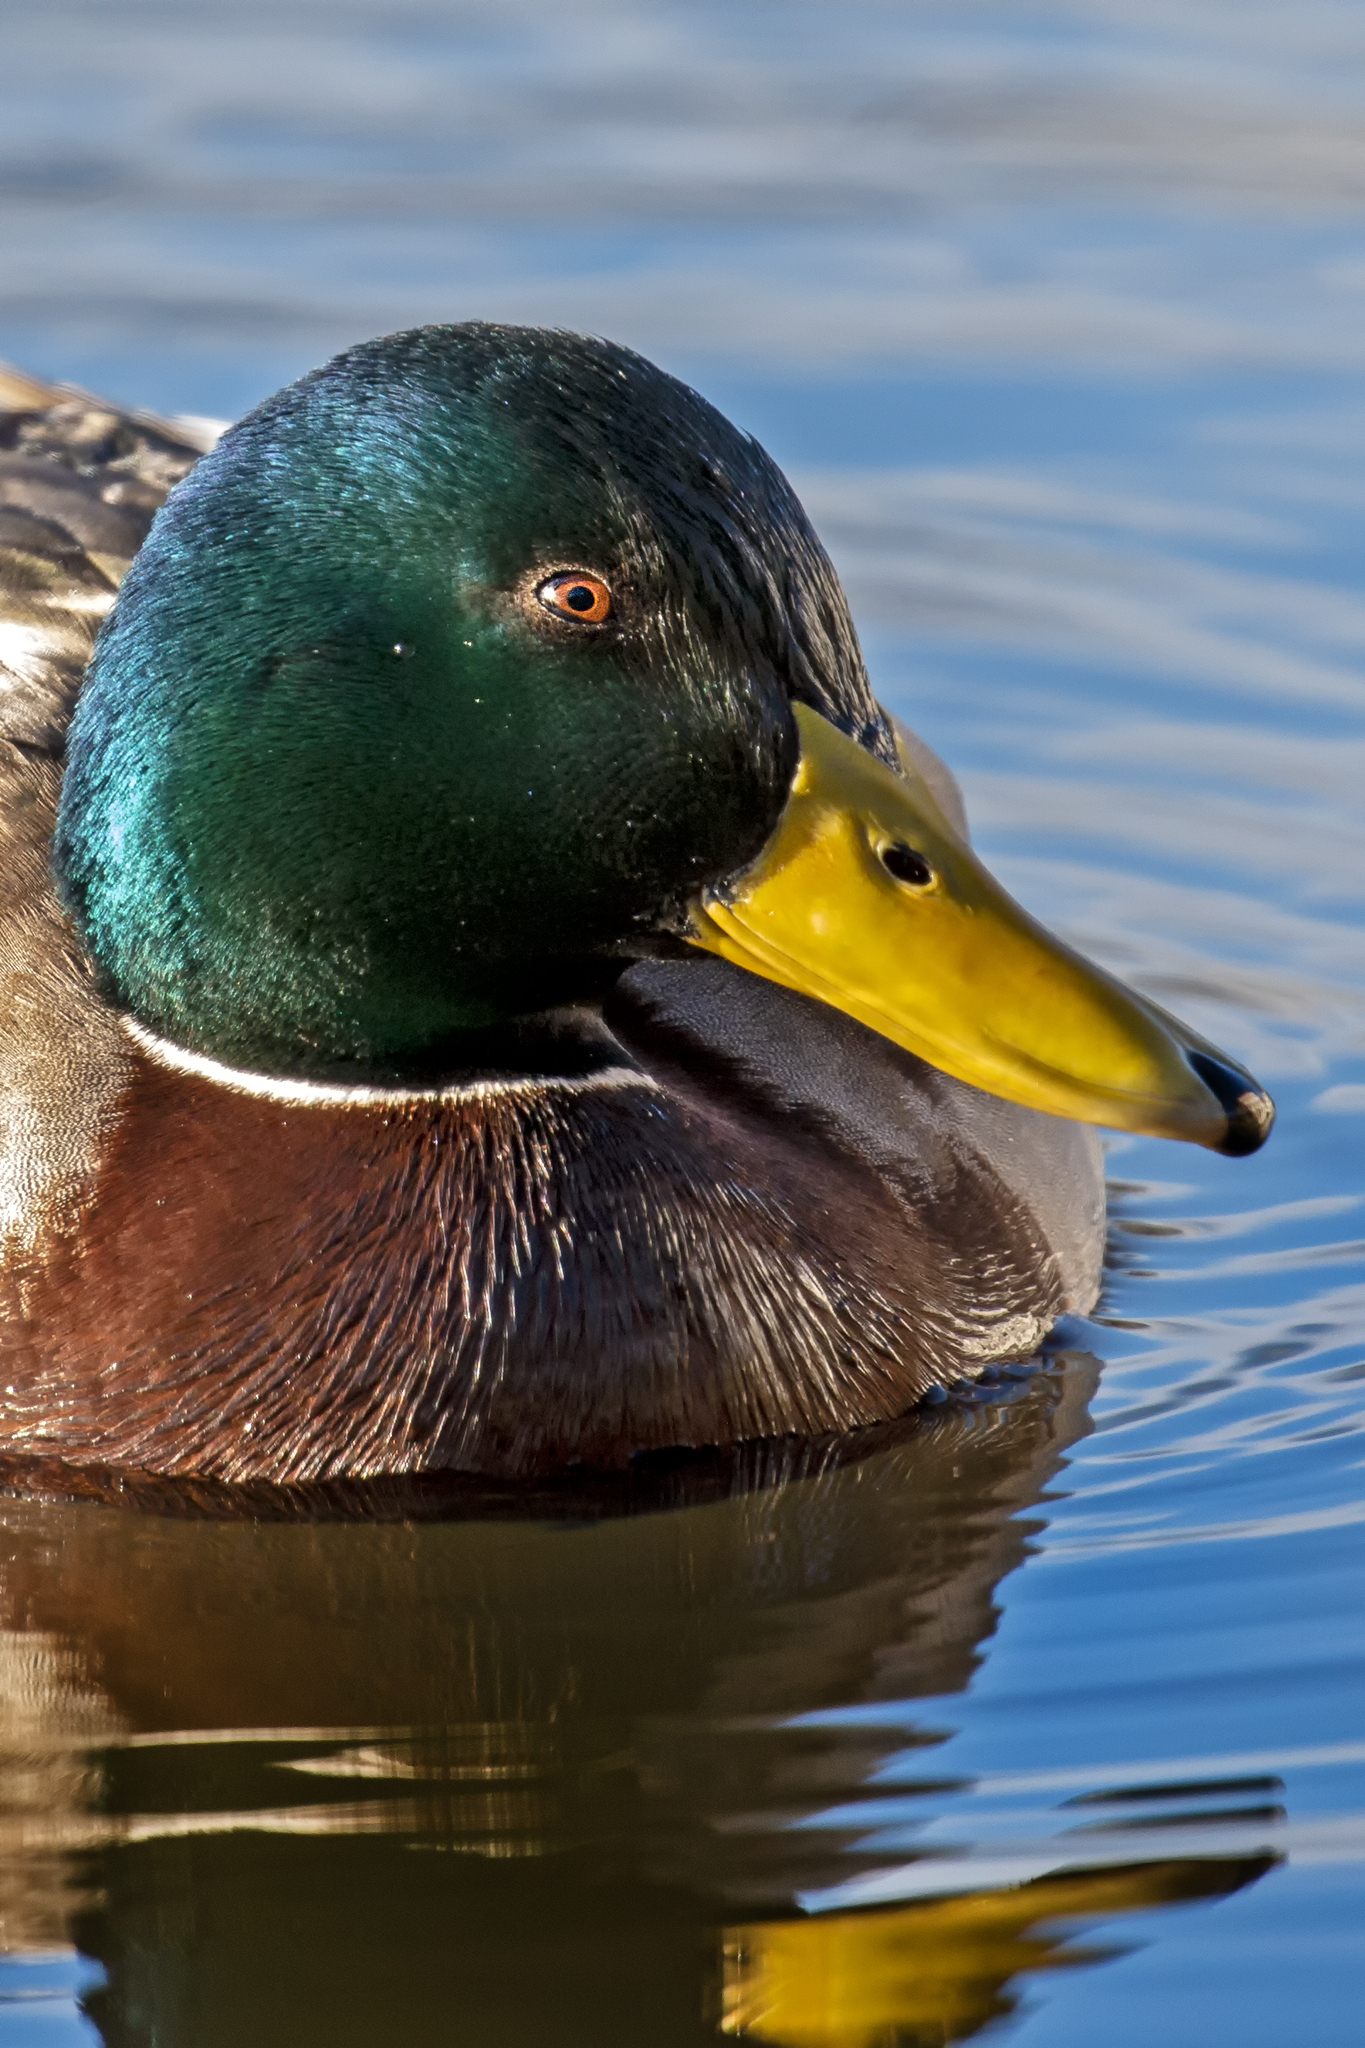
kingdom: Animalia
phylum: Chordata
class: Aves
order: Anseriformes
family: Anatidae
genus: Anas
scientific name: Anas platyrhynchos
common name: Mallard
